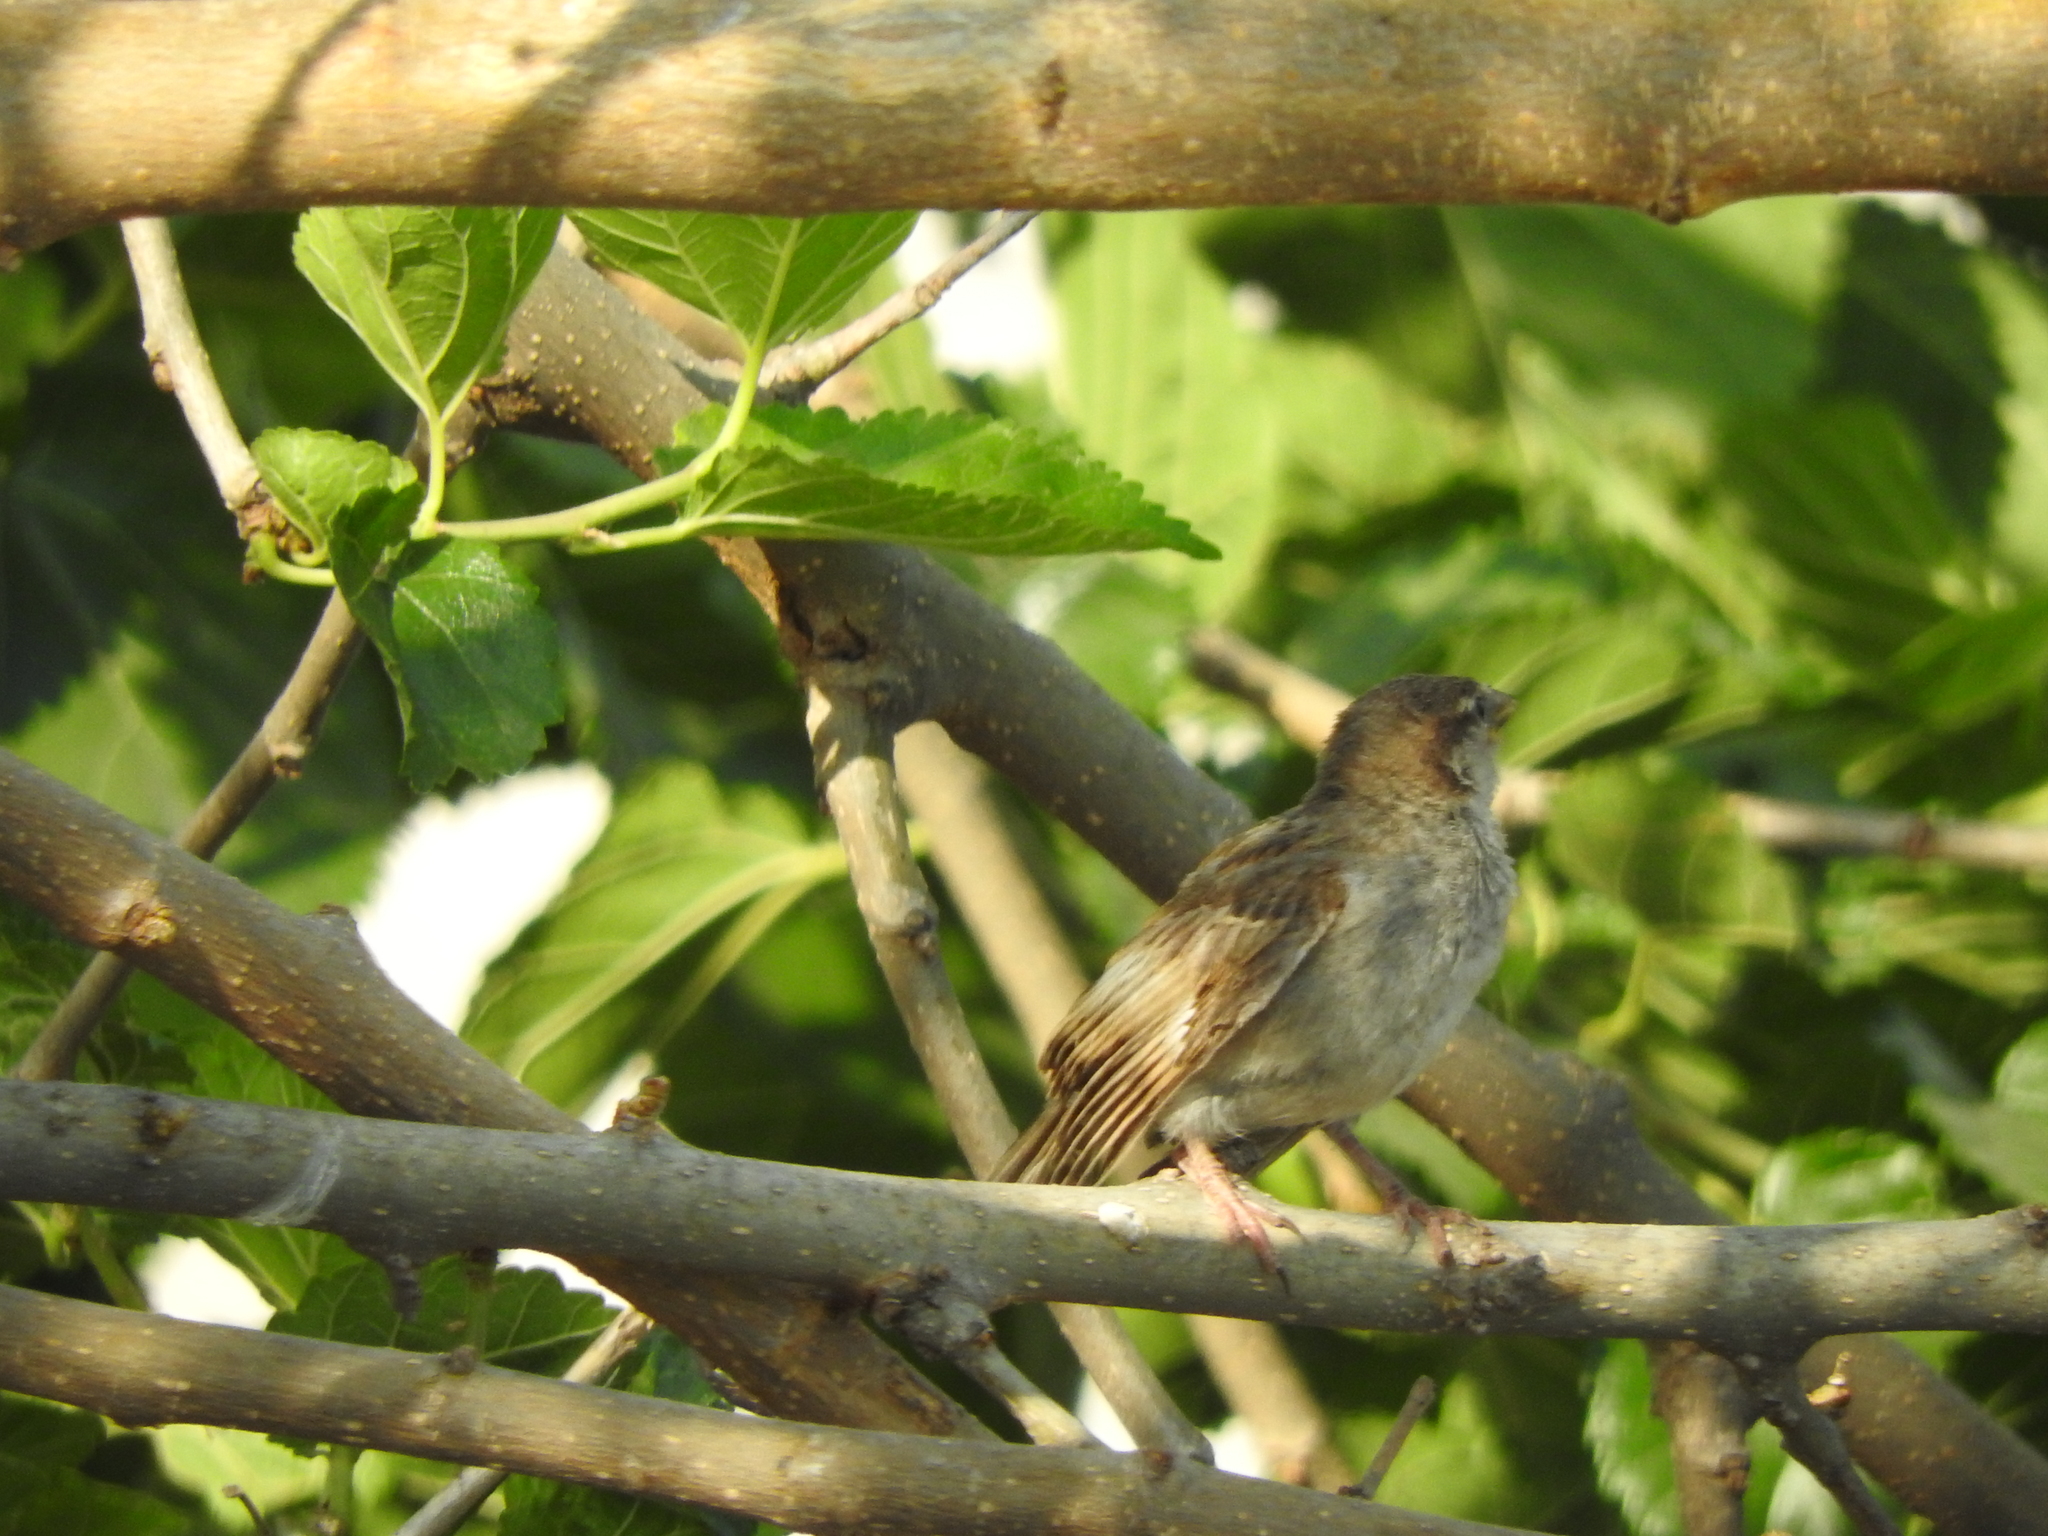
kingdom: Animalia
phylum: Chordata
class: Aves
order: Passeriformes
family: Passeridae
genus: Passer
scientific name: Passer domesticus
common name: House sparrow
